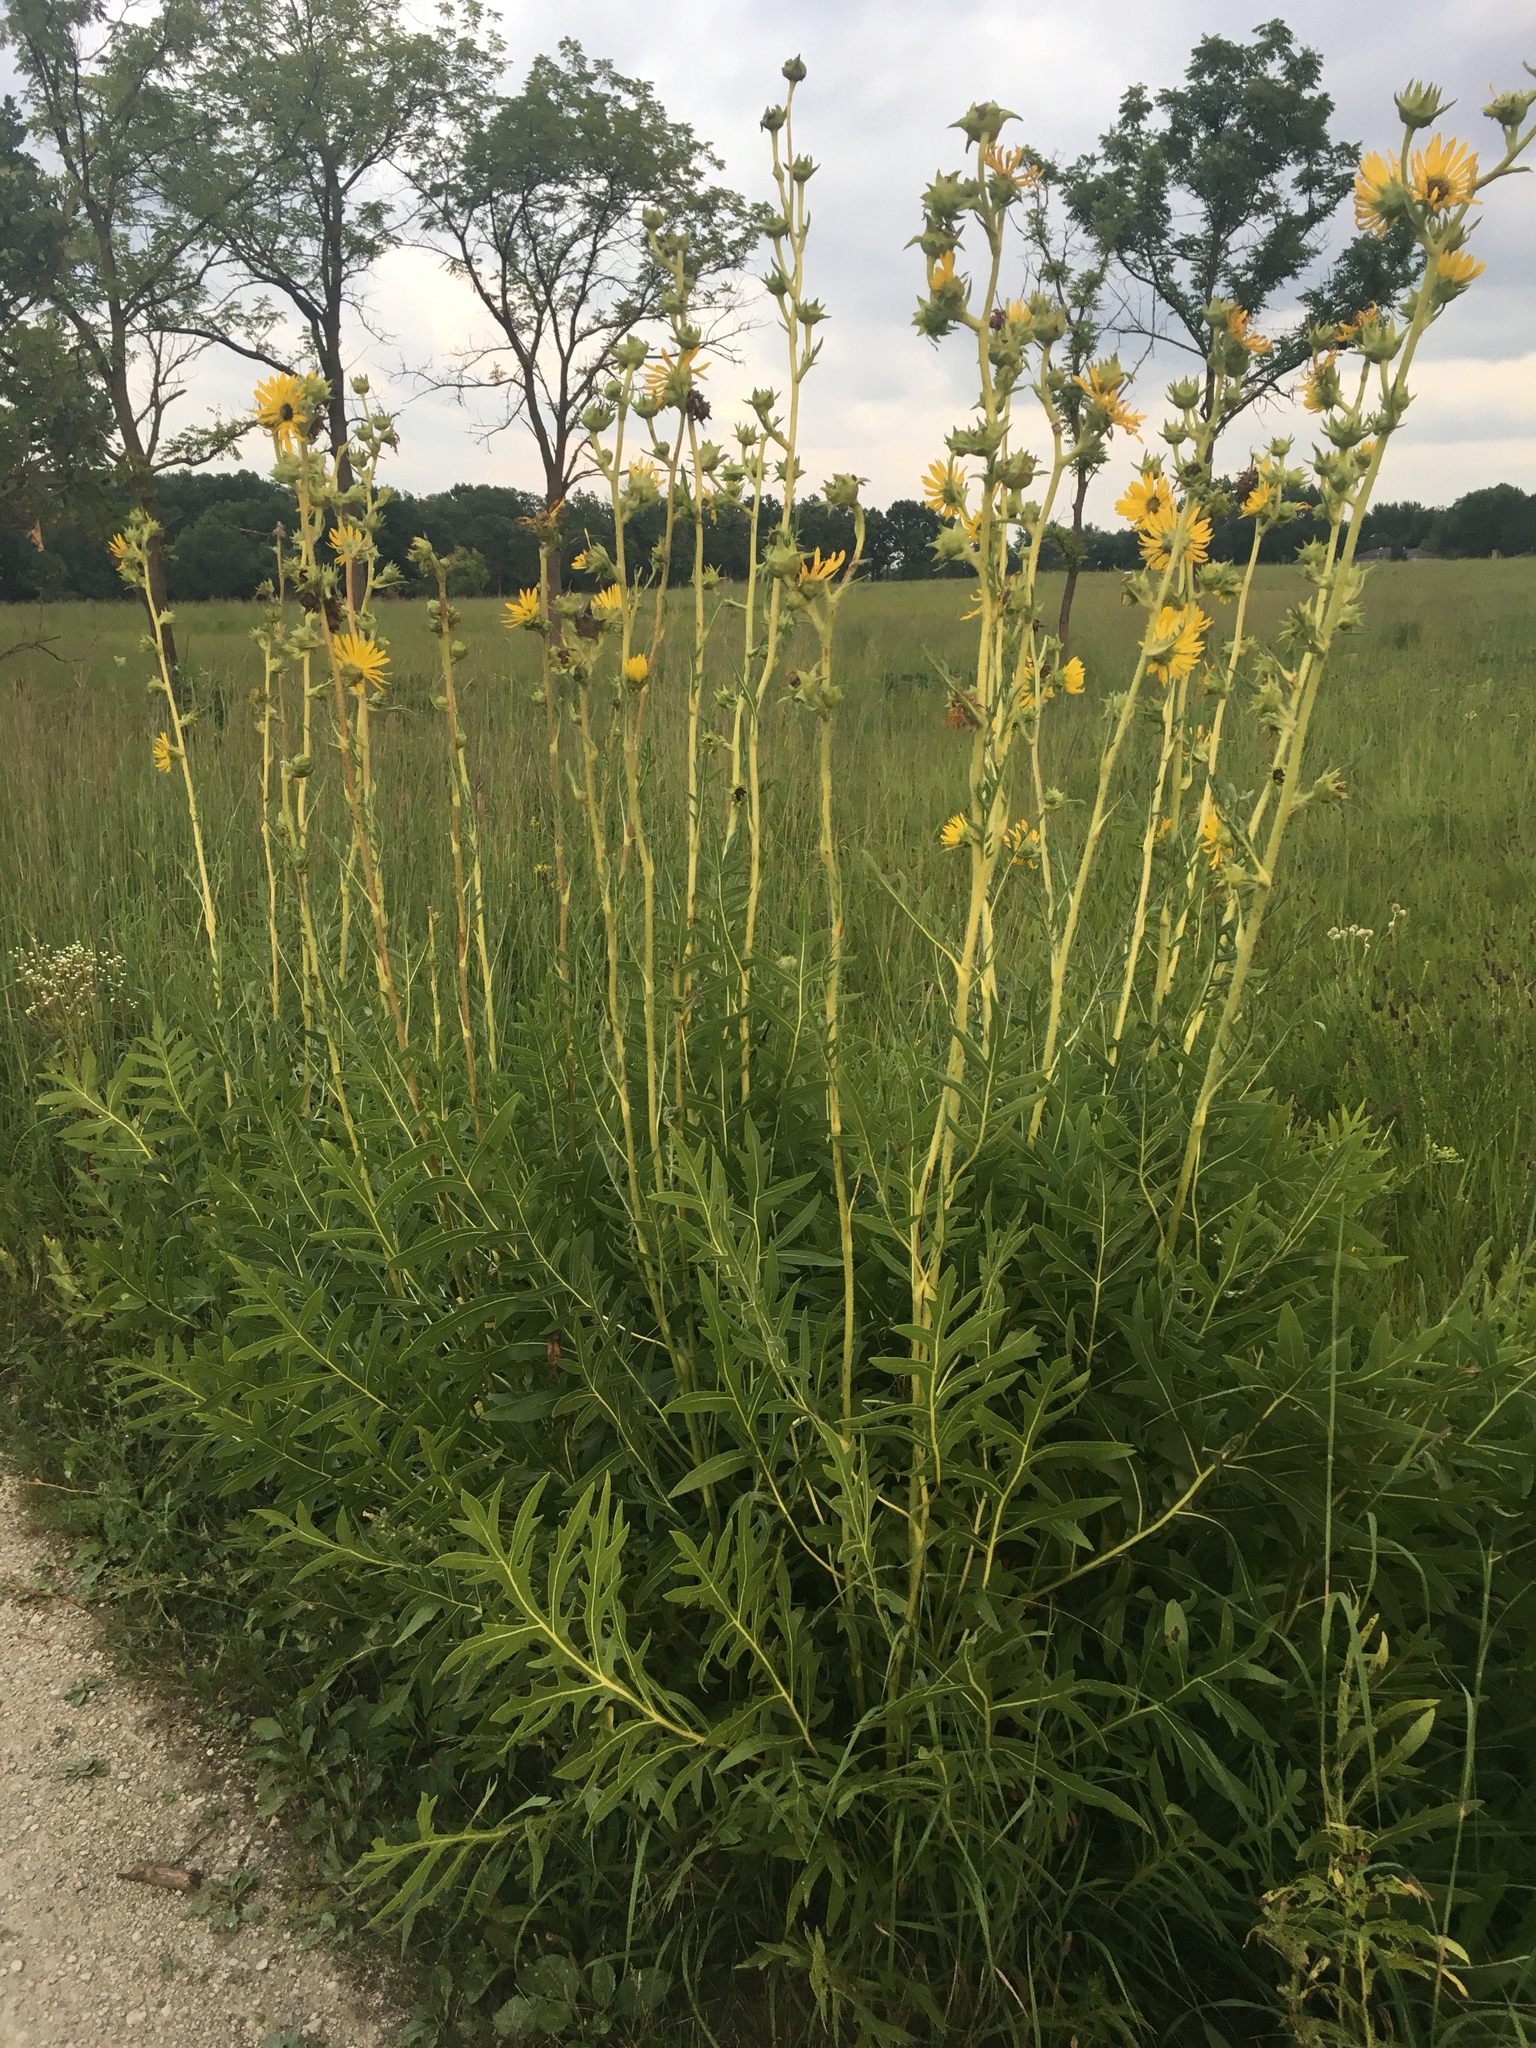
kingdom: Plantae
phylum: Tracheophyta
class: Magnoliopsida
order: Asterales
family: Asteraceae
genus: Silphium
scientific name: Silphium laciniatum
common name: Polarplant
